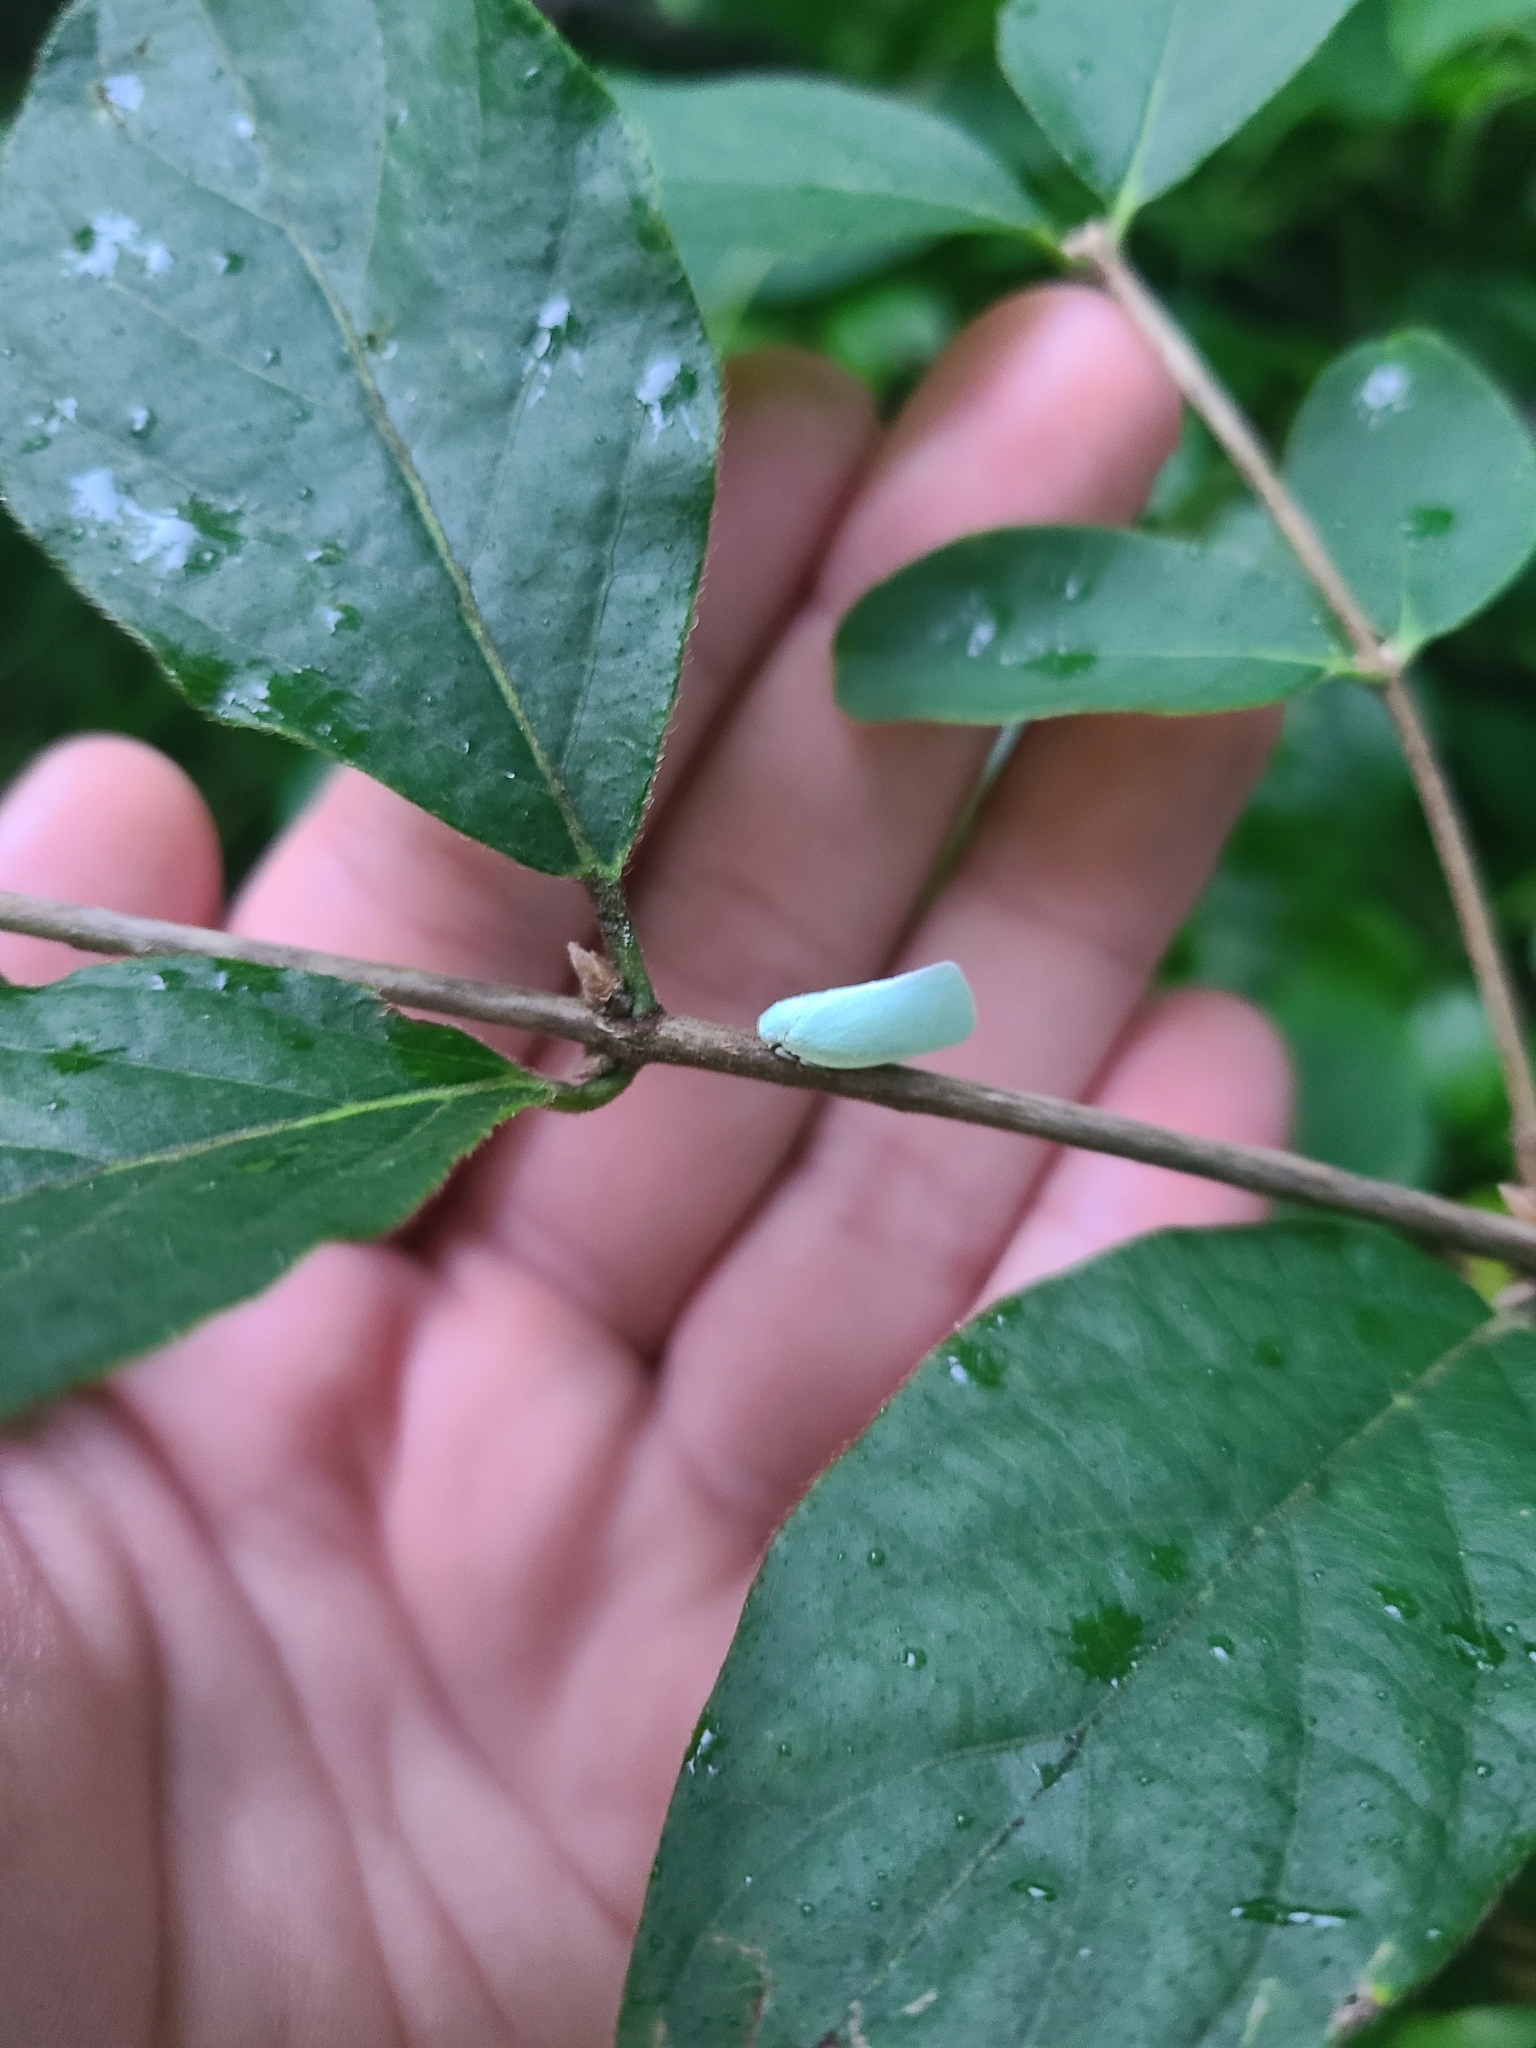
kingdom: Animalia
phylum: Arthropoda
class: Insecta
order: Hemiptera
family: Flatidae
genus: Flatormenis
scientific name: Flatormenis proxima
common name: Northern flatid planthopper
